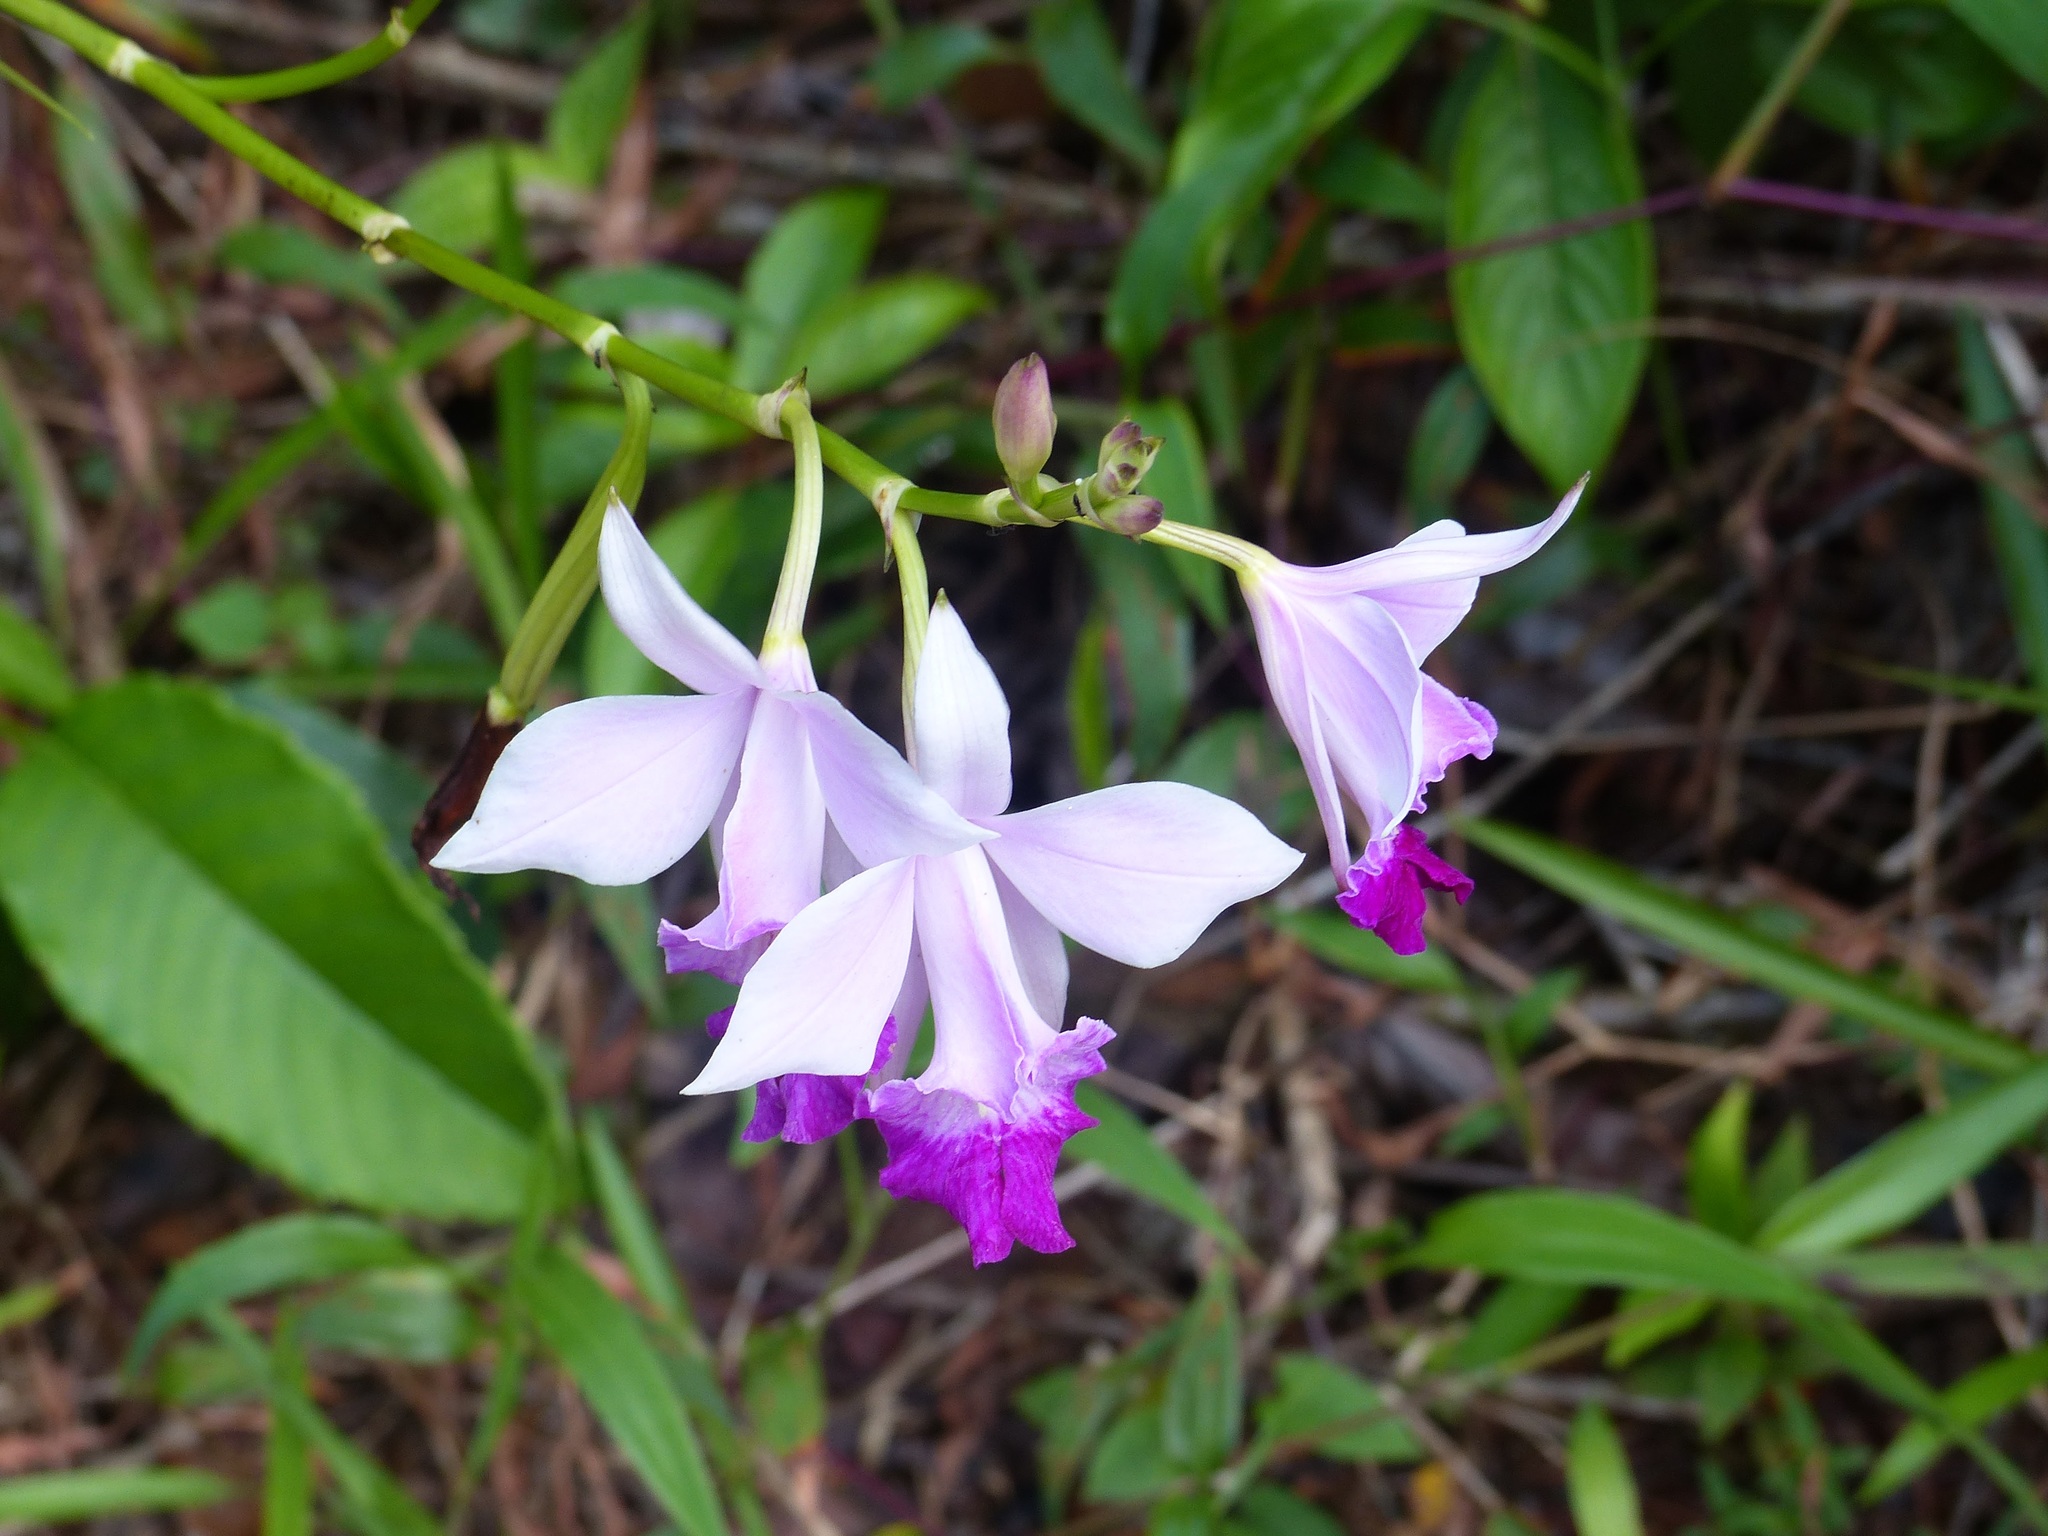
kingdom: Plantae
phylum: Tracheophyta
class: Liliopsida
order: Asparagales
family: Orchidaceae
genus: Arundina
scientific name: Arundina graminifolia
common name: Bamboo orchid
